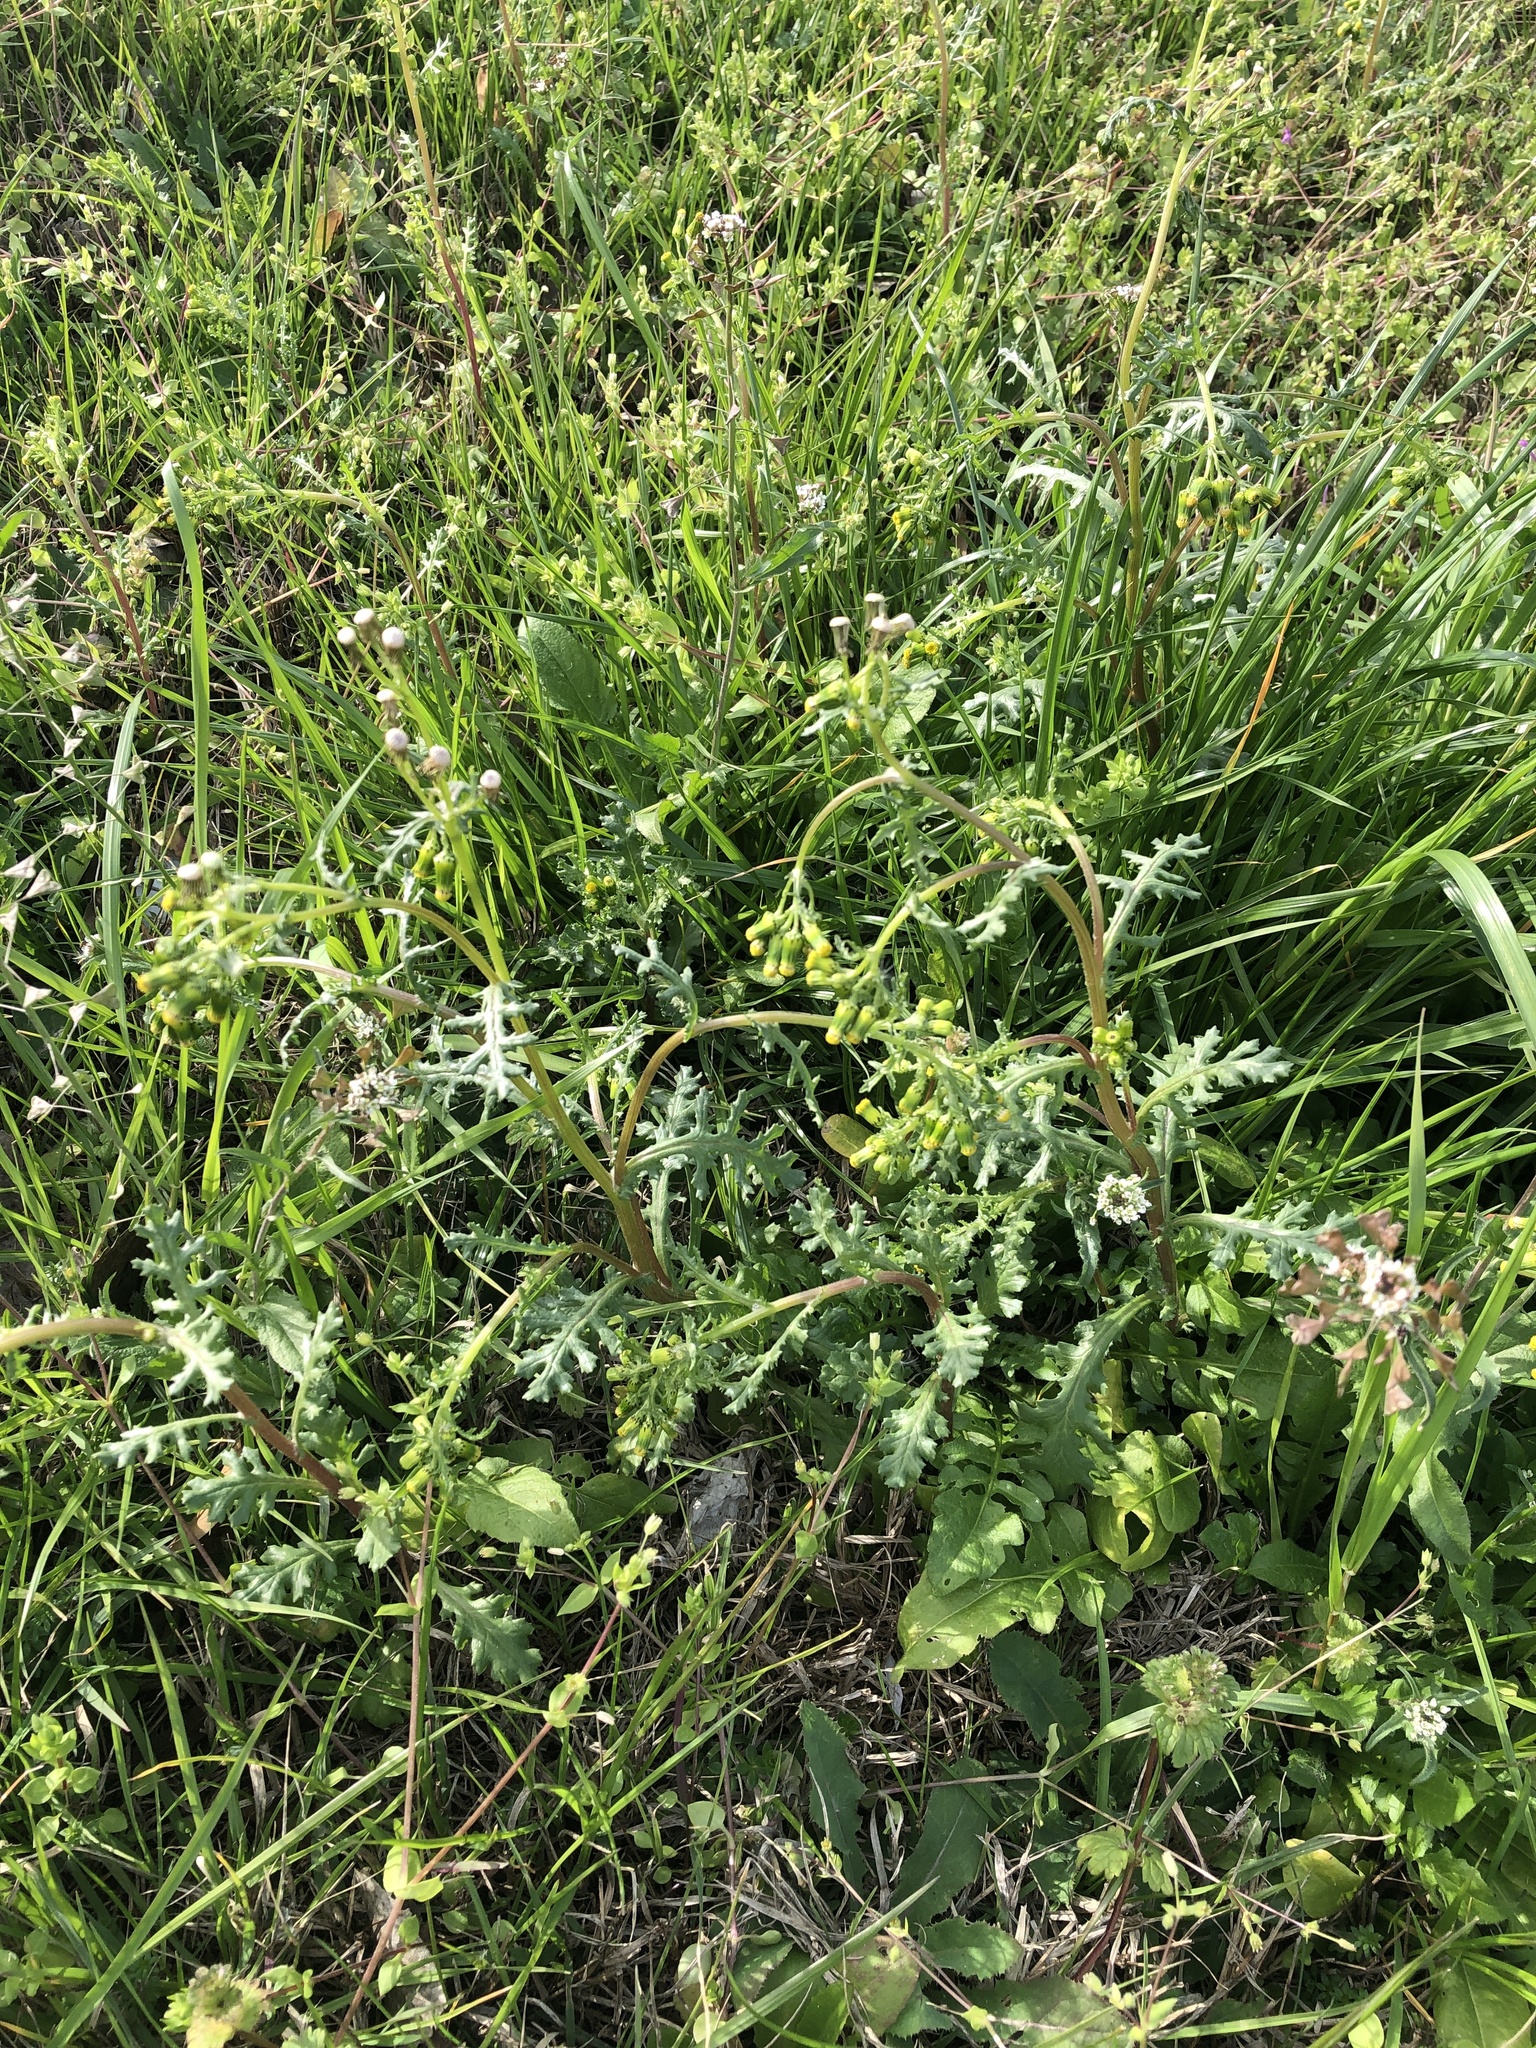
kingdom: Plantae
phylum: Tracheophyta
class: Magnoliopsida
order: Asterales
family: Asteraceae
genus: Senecio
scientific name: Senecio vulgaris
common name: Old-man-in-the-spring
